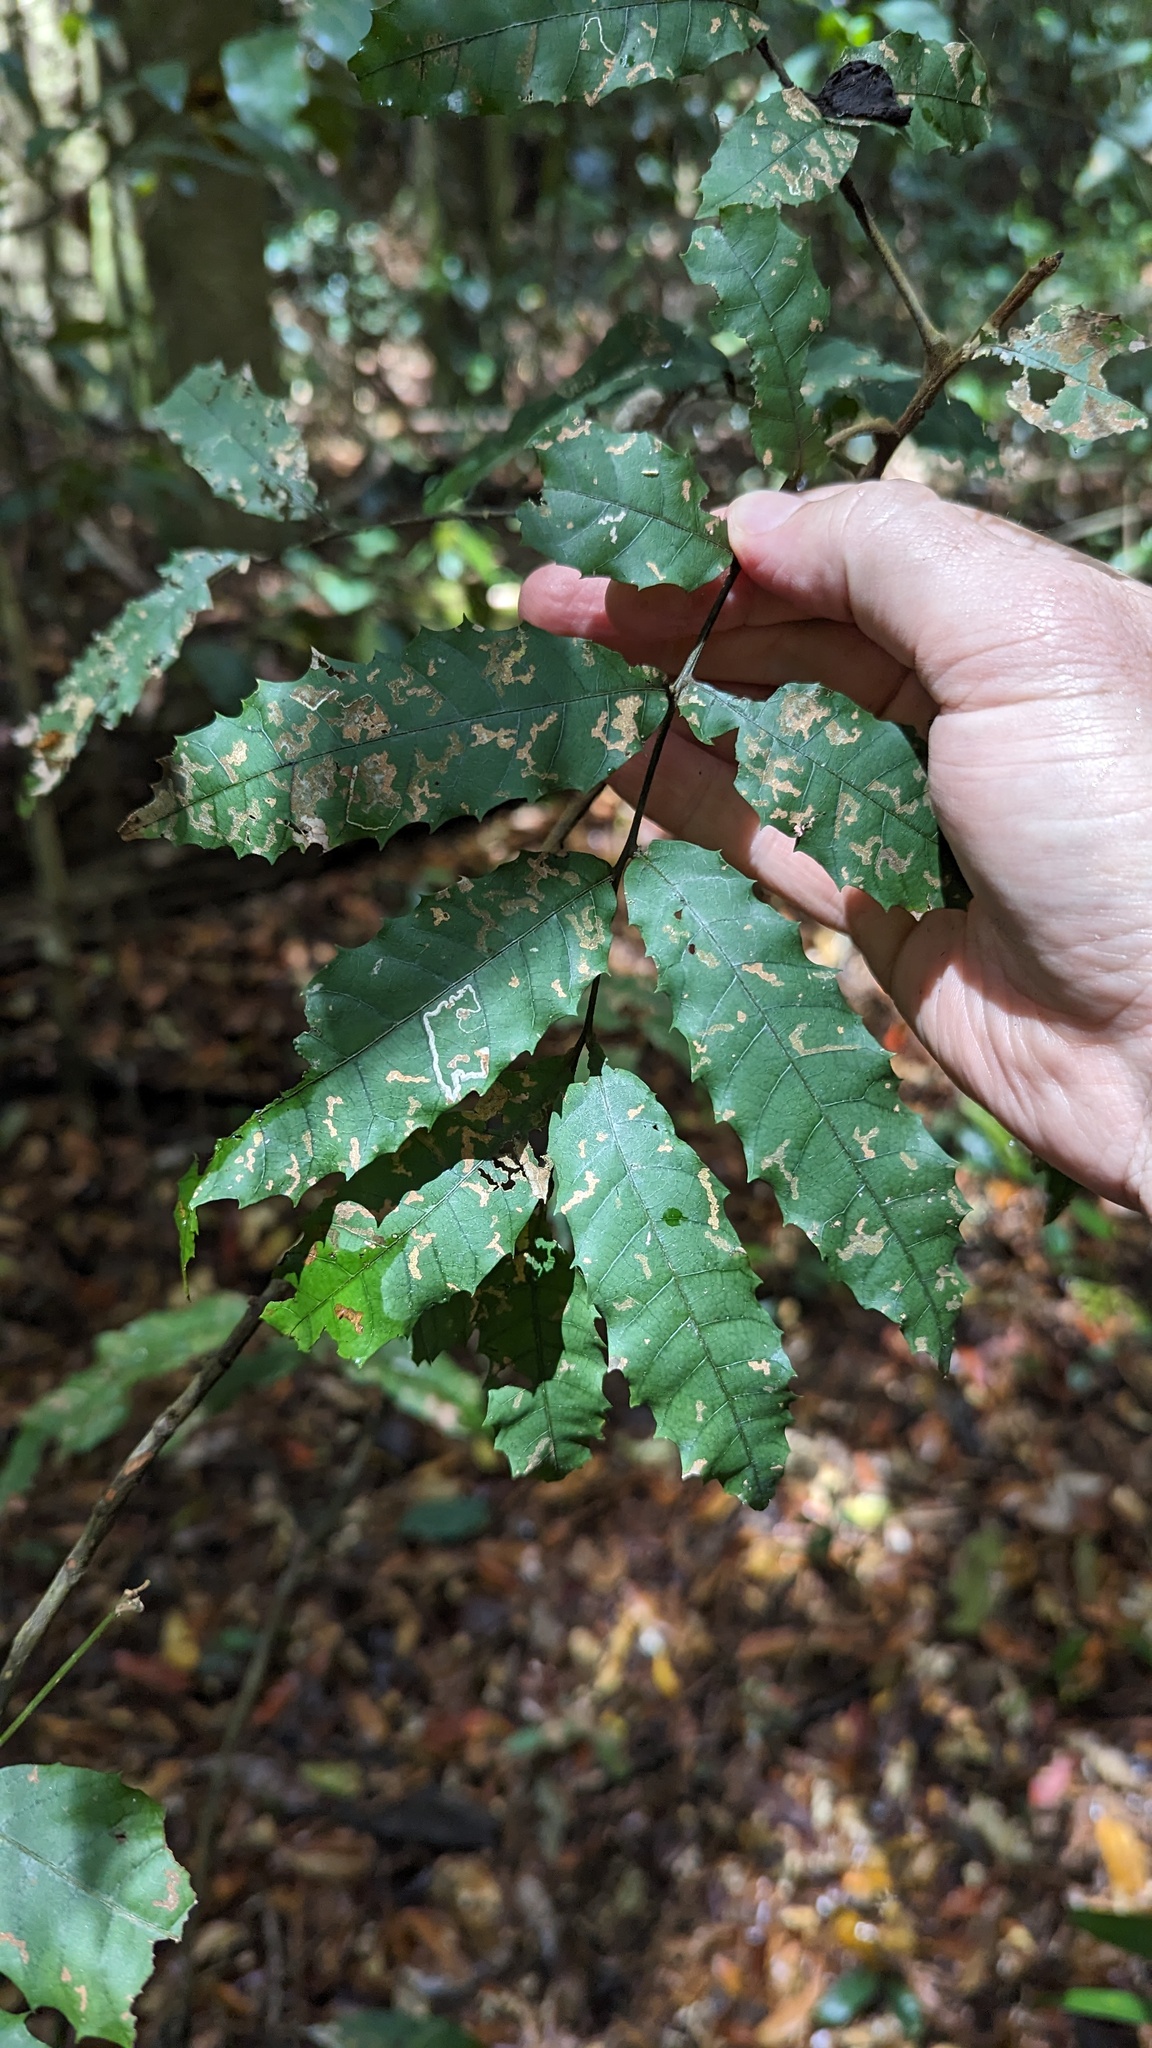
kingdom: Plantae
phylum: Tracheophyta
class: Magnoliopsida
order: Sapindales
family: Sapindaceae
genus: Cupaniopsis
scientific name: Cupaniopsis serrata
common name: Rusty tuckeroo
